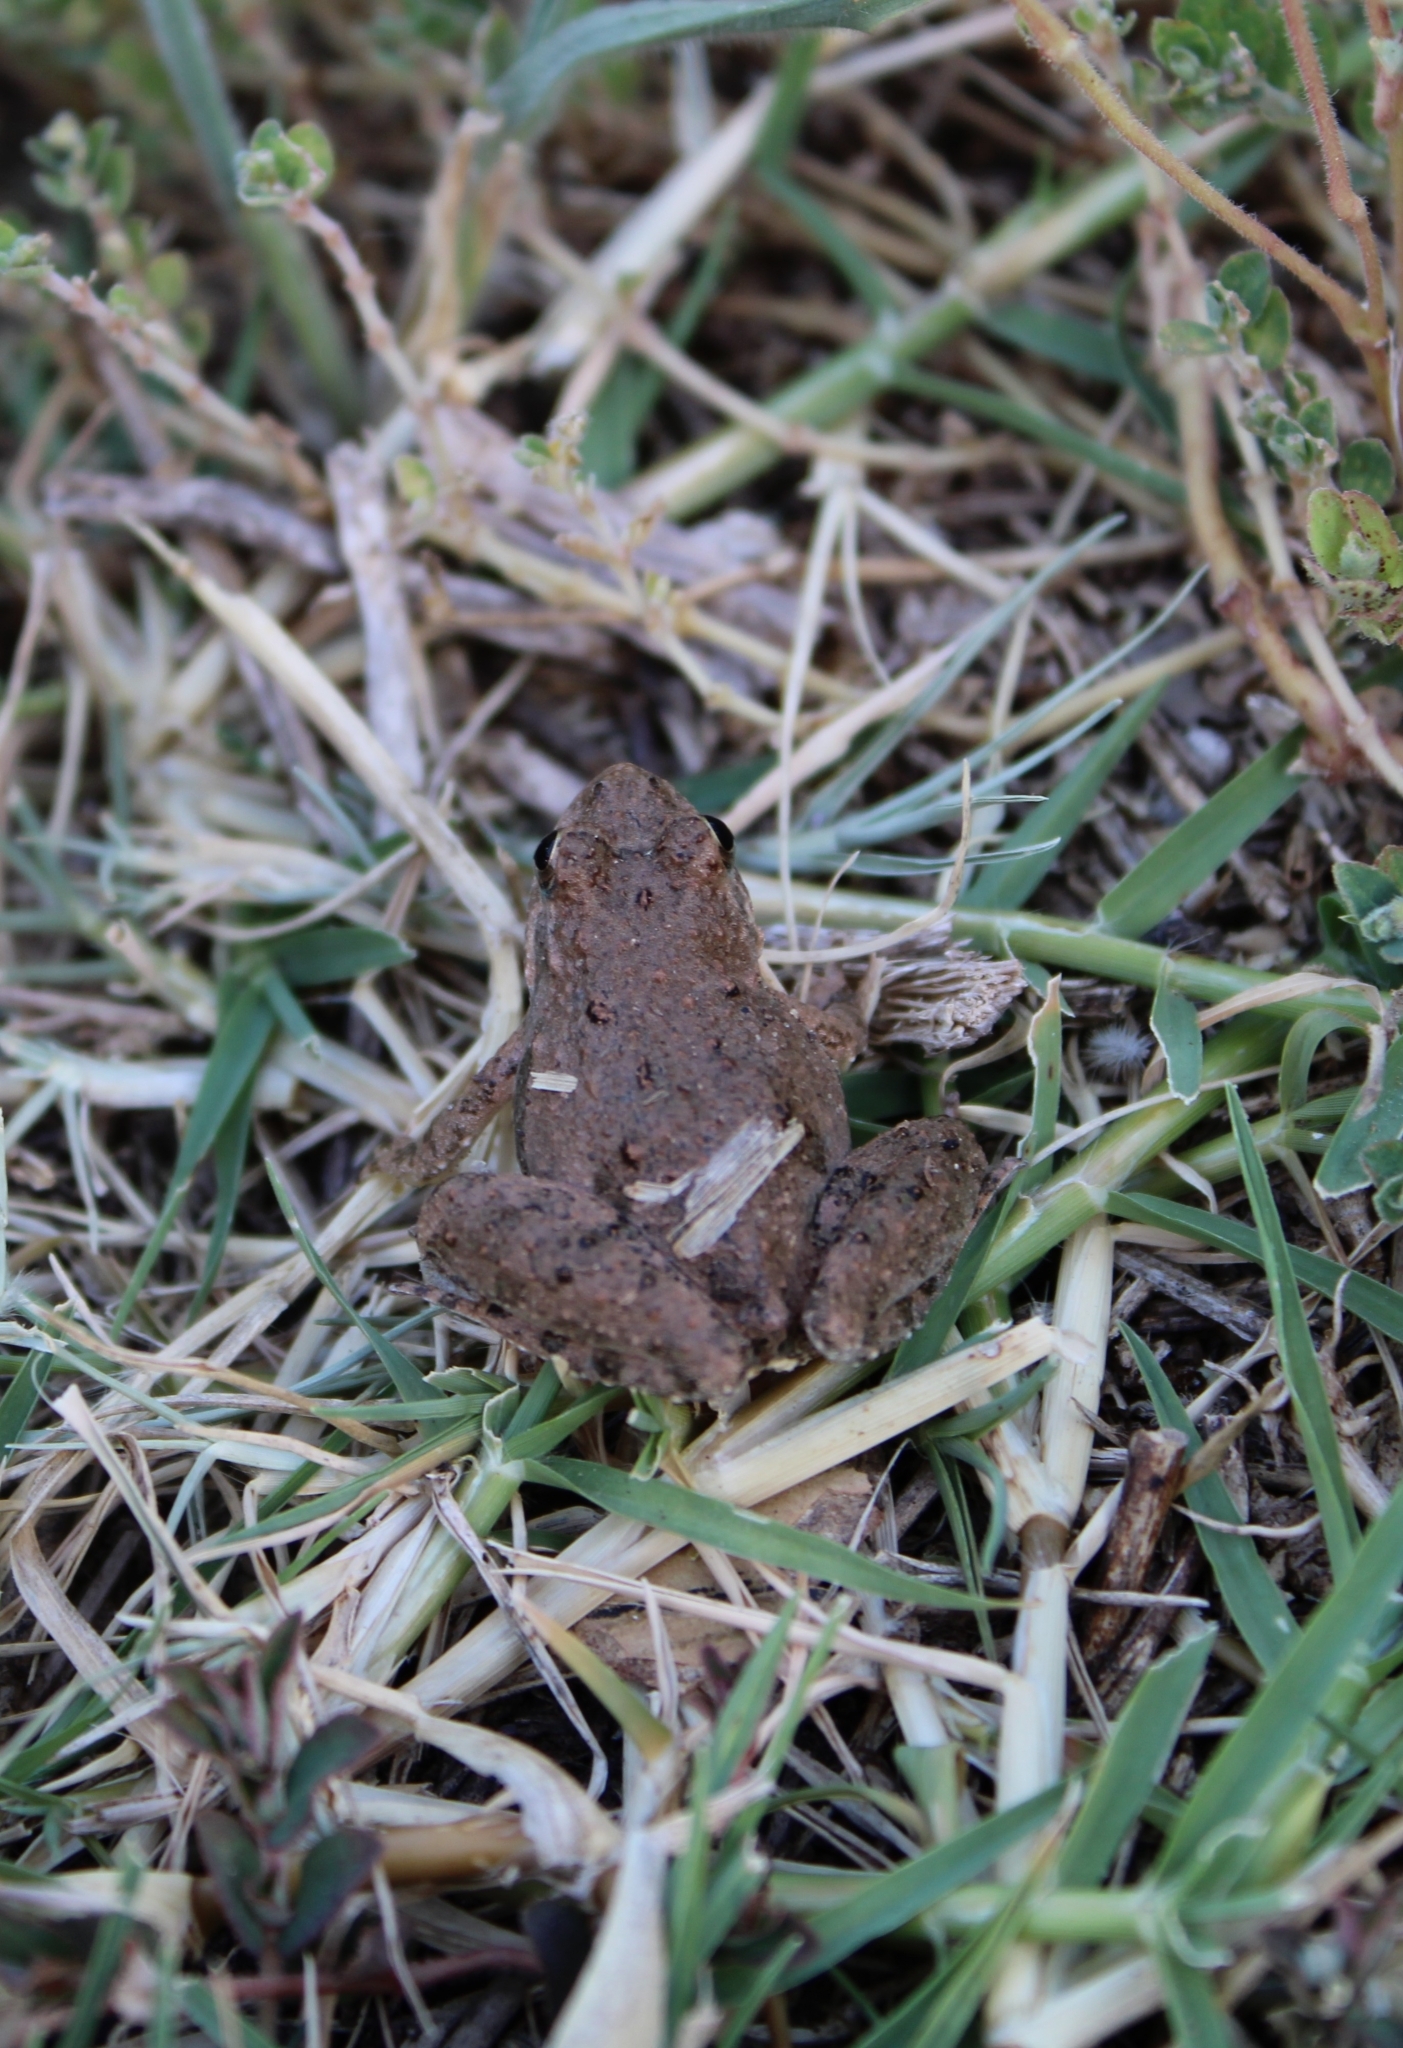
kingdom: Animalia
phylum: Chordata
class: Amphibia
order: Anura
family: Hylidae
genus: Acris
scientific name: Acris blanchardi
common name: Blanchard's cricket frog
